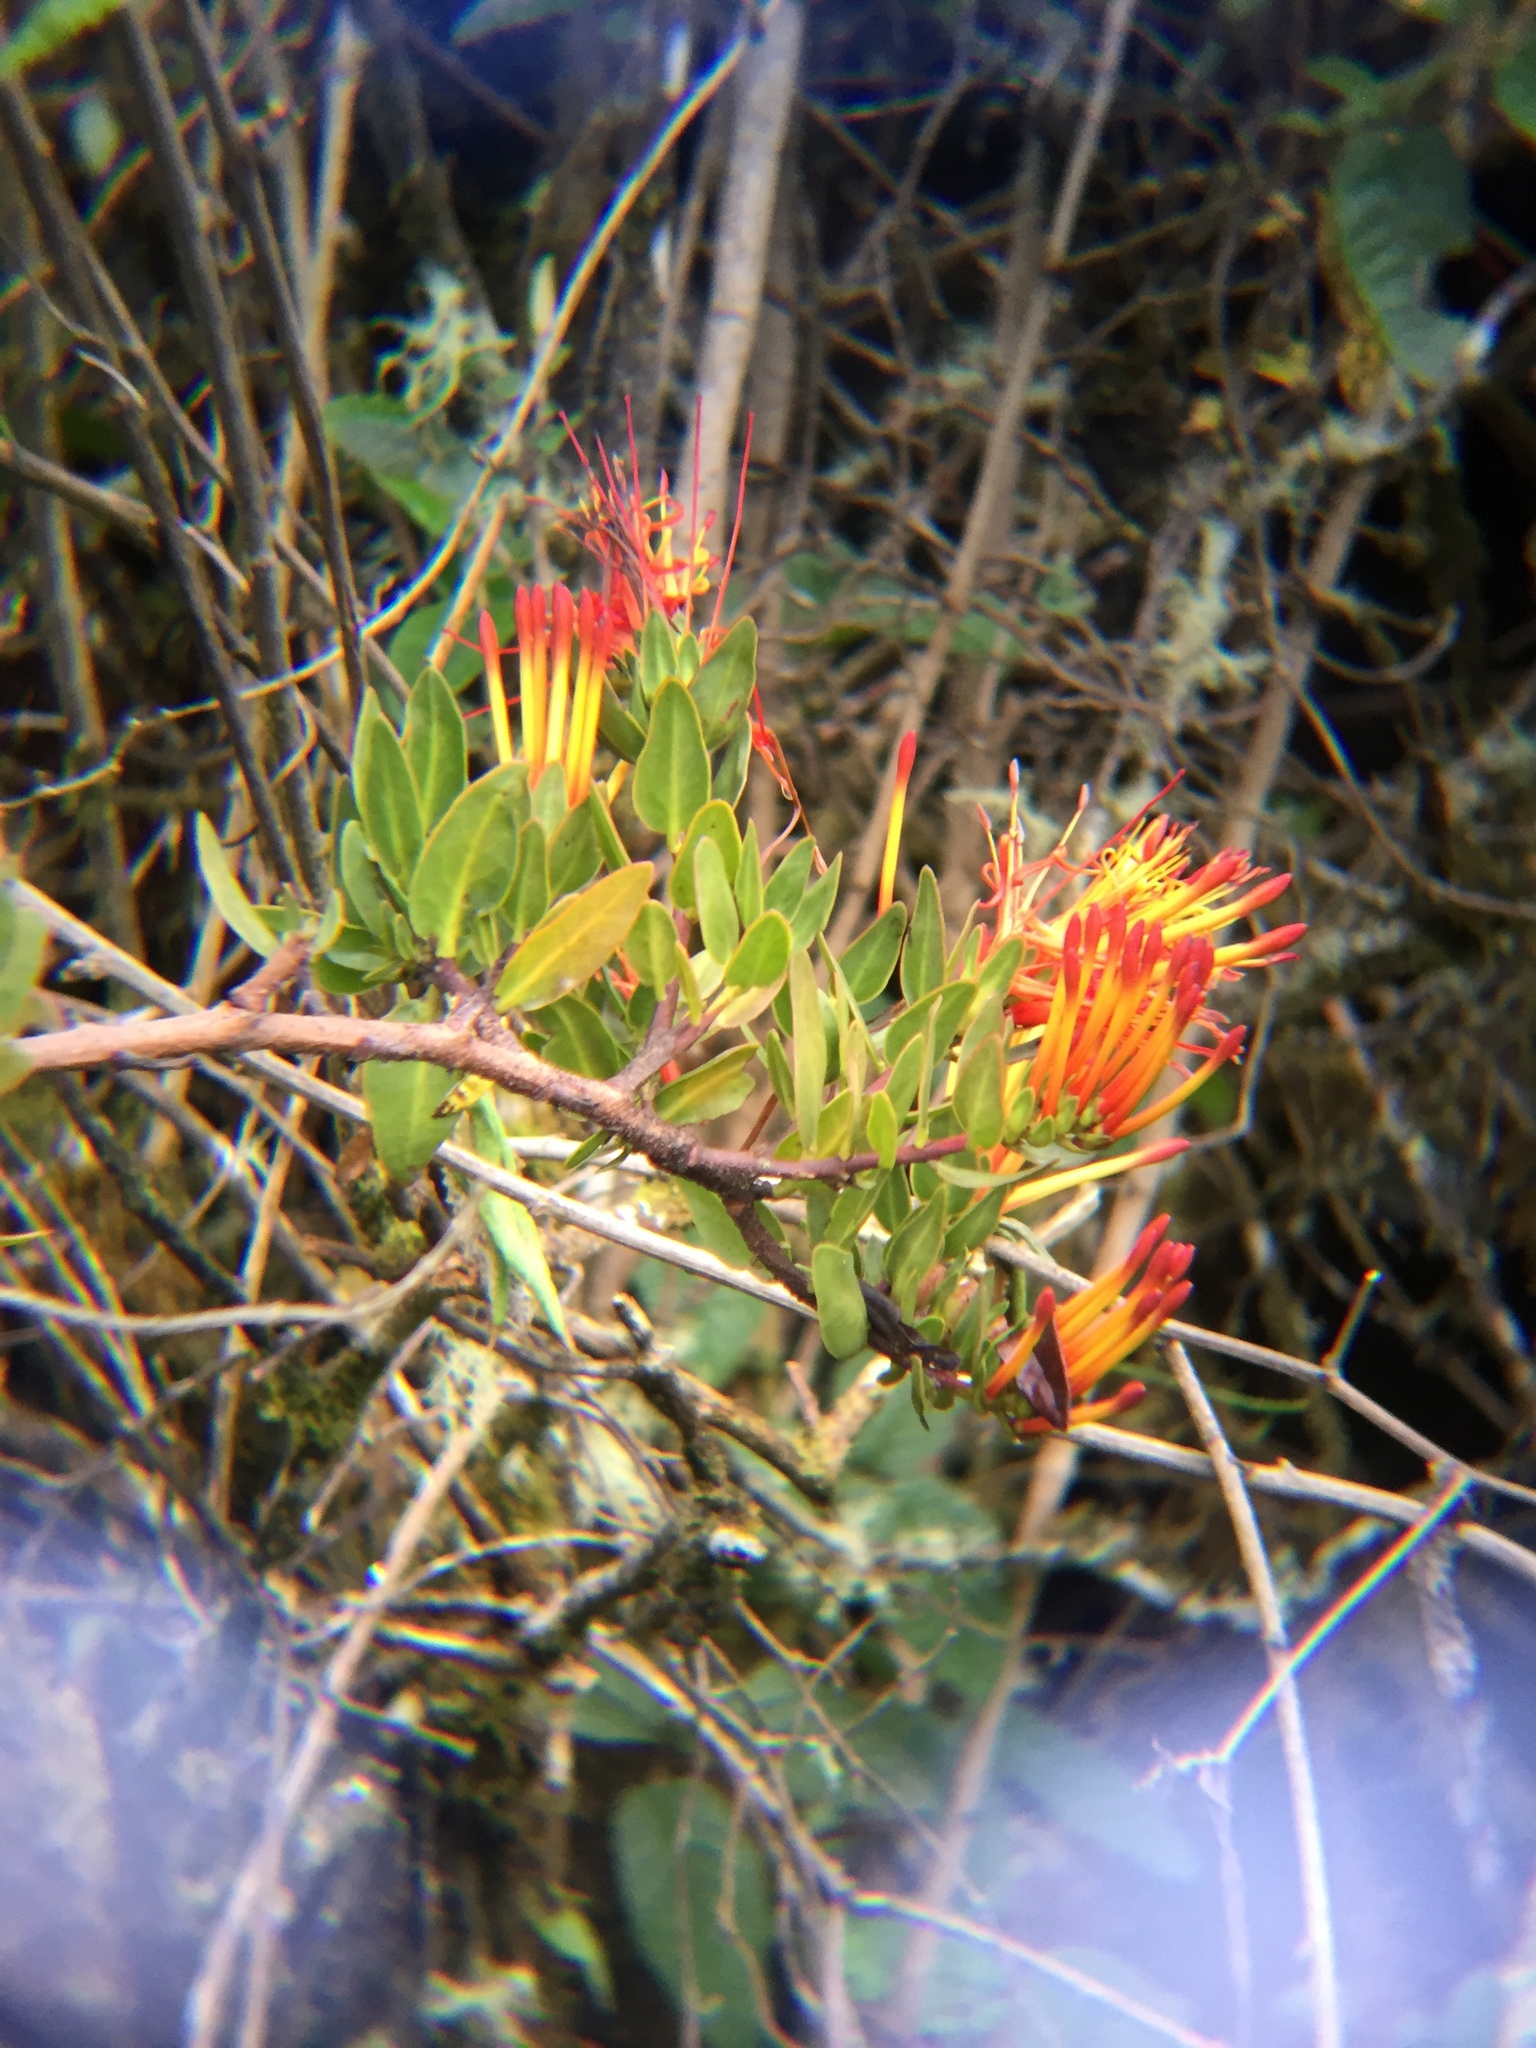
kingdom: Plantae
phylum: Tracheophyta
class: Magnoliopsida
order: Santalales
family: Loranthaceae
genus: Tristerix
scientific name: Tristerix longibracteatus
